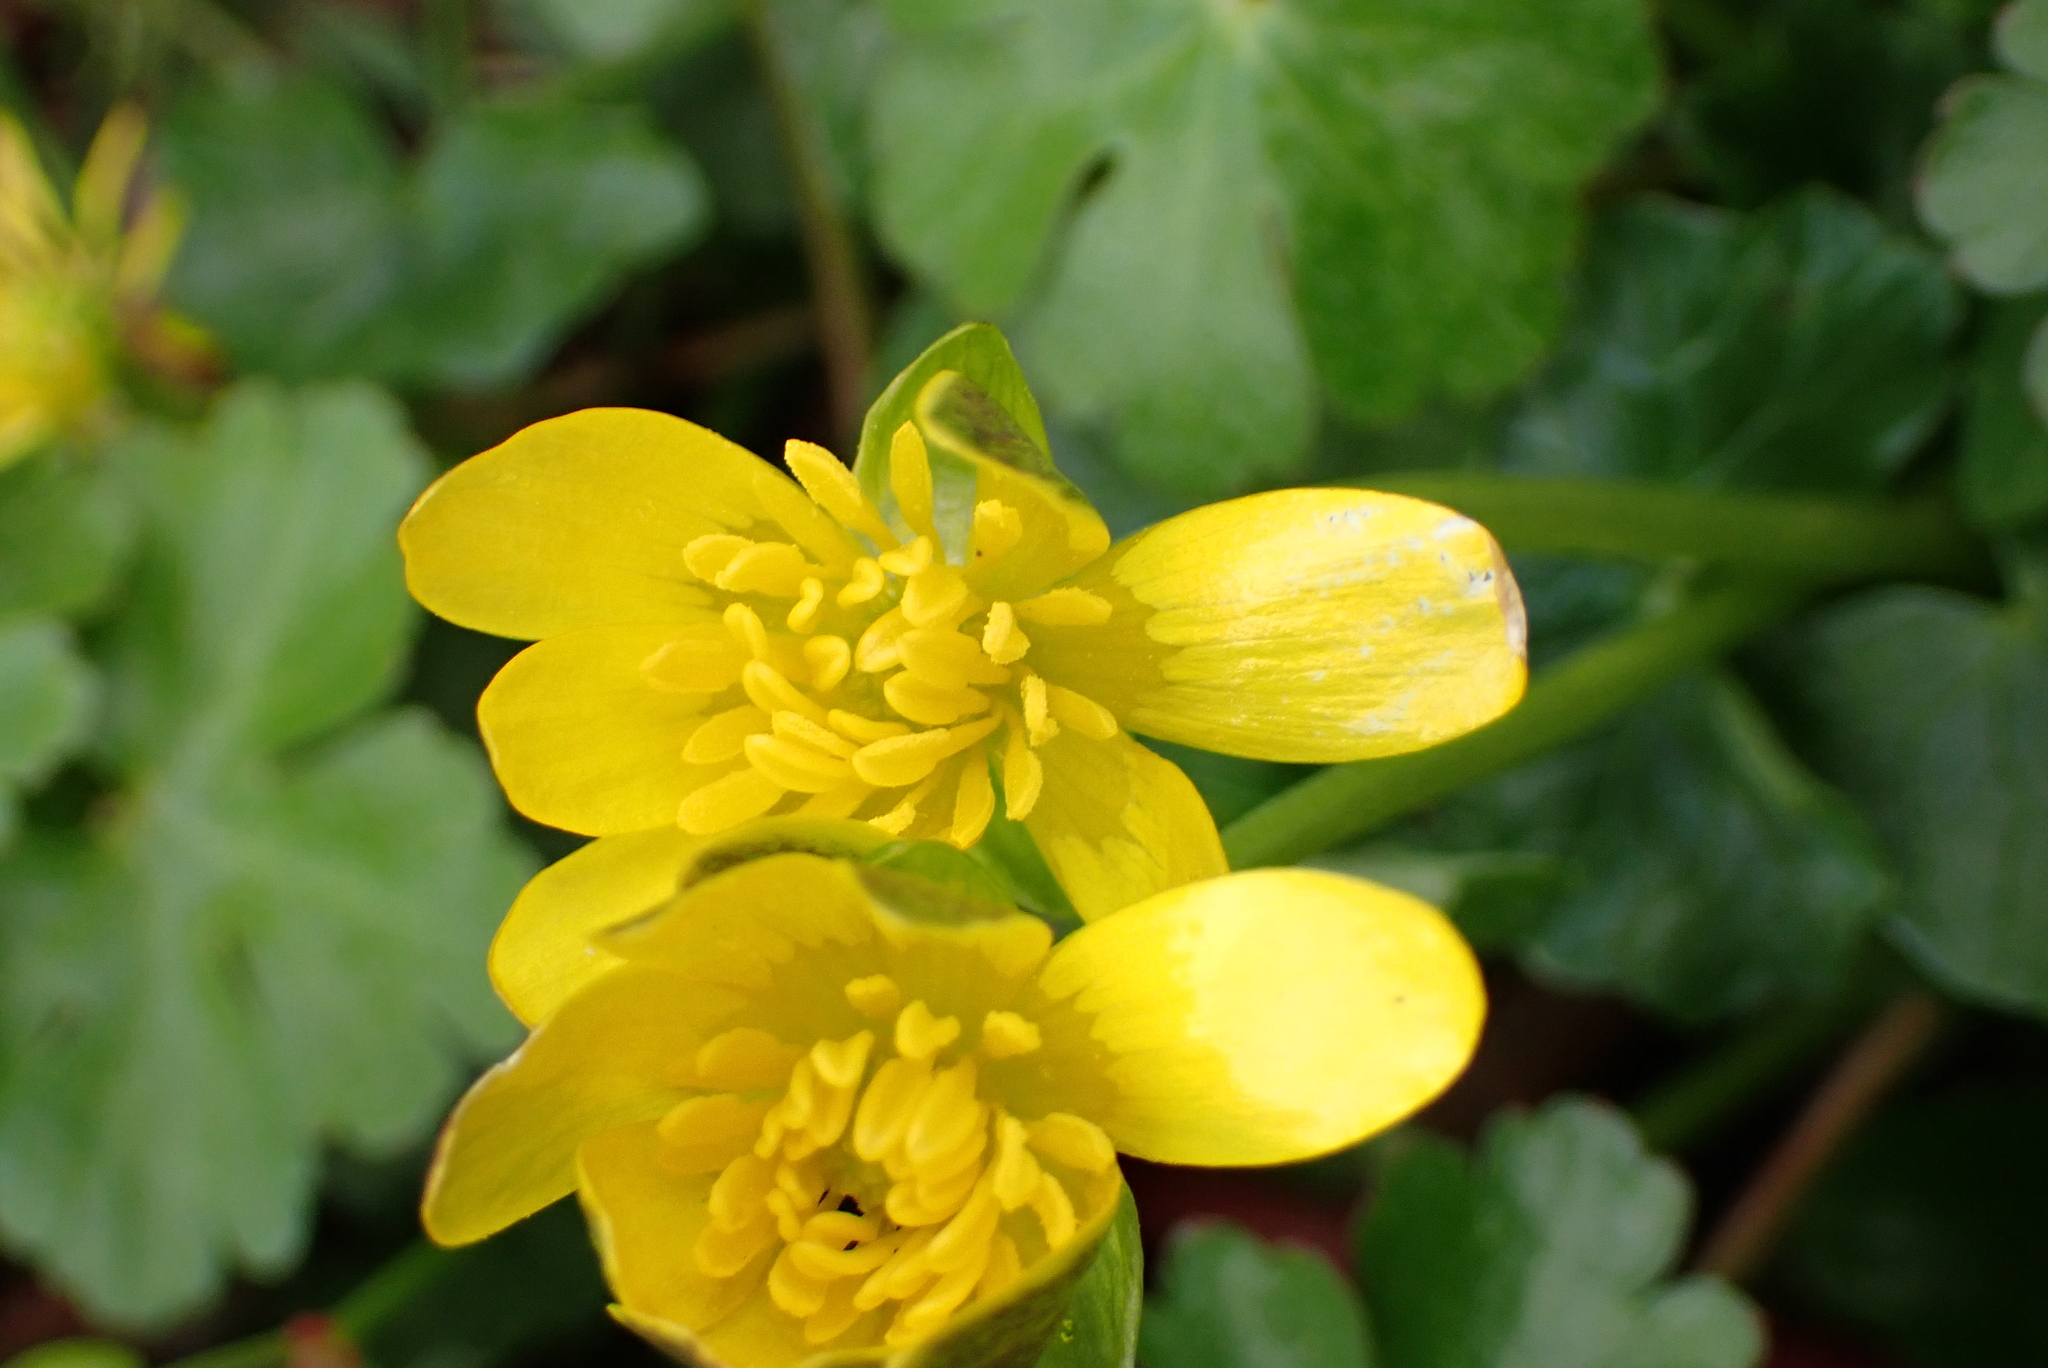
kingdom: Plantae
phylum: Tracheophyta
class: Magnoliopsida
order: Ranunculales
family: Ranunculaceae
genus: Ficaria
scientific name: Ficaria verna
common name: Lesser celandine
